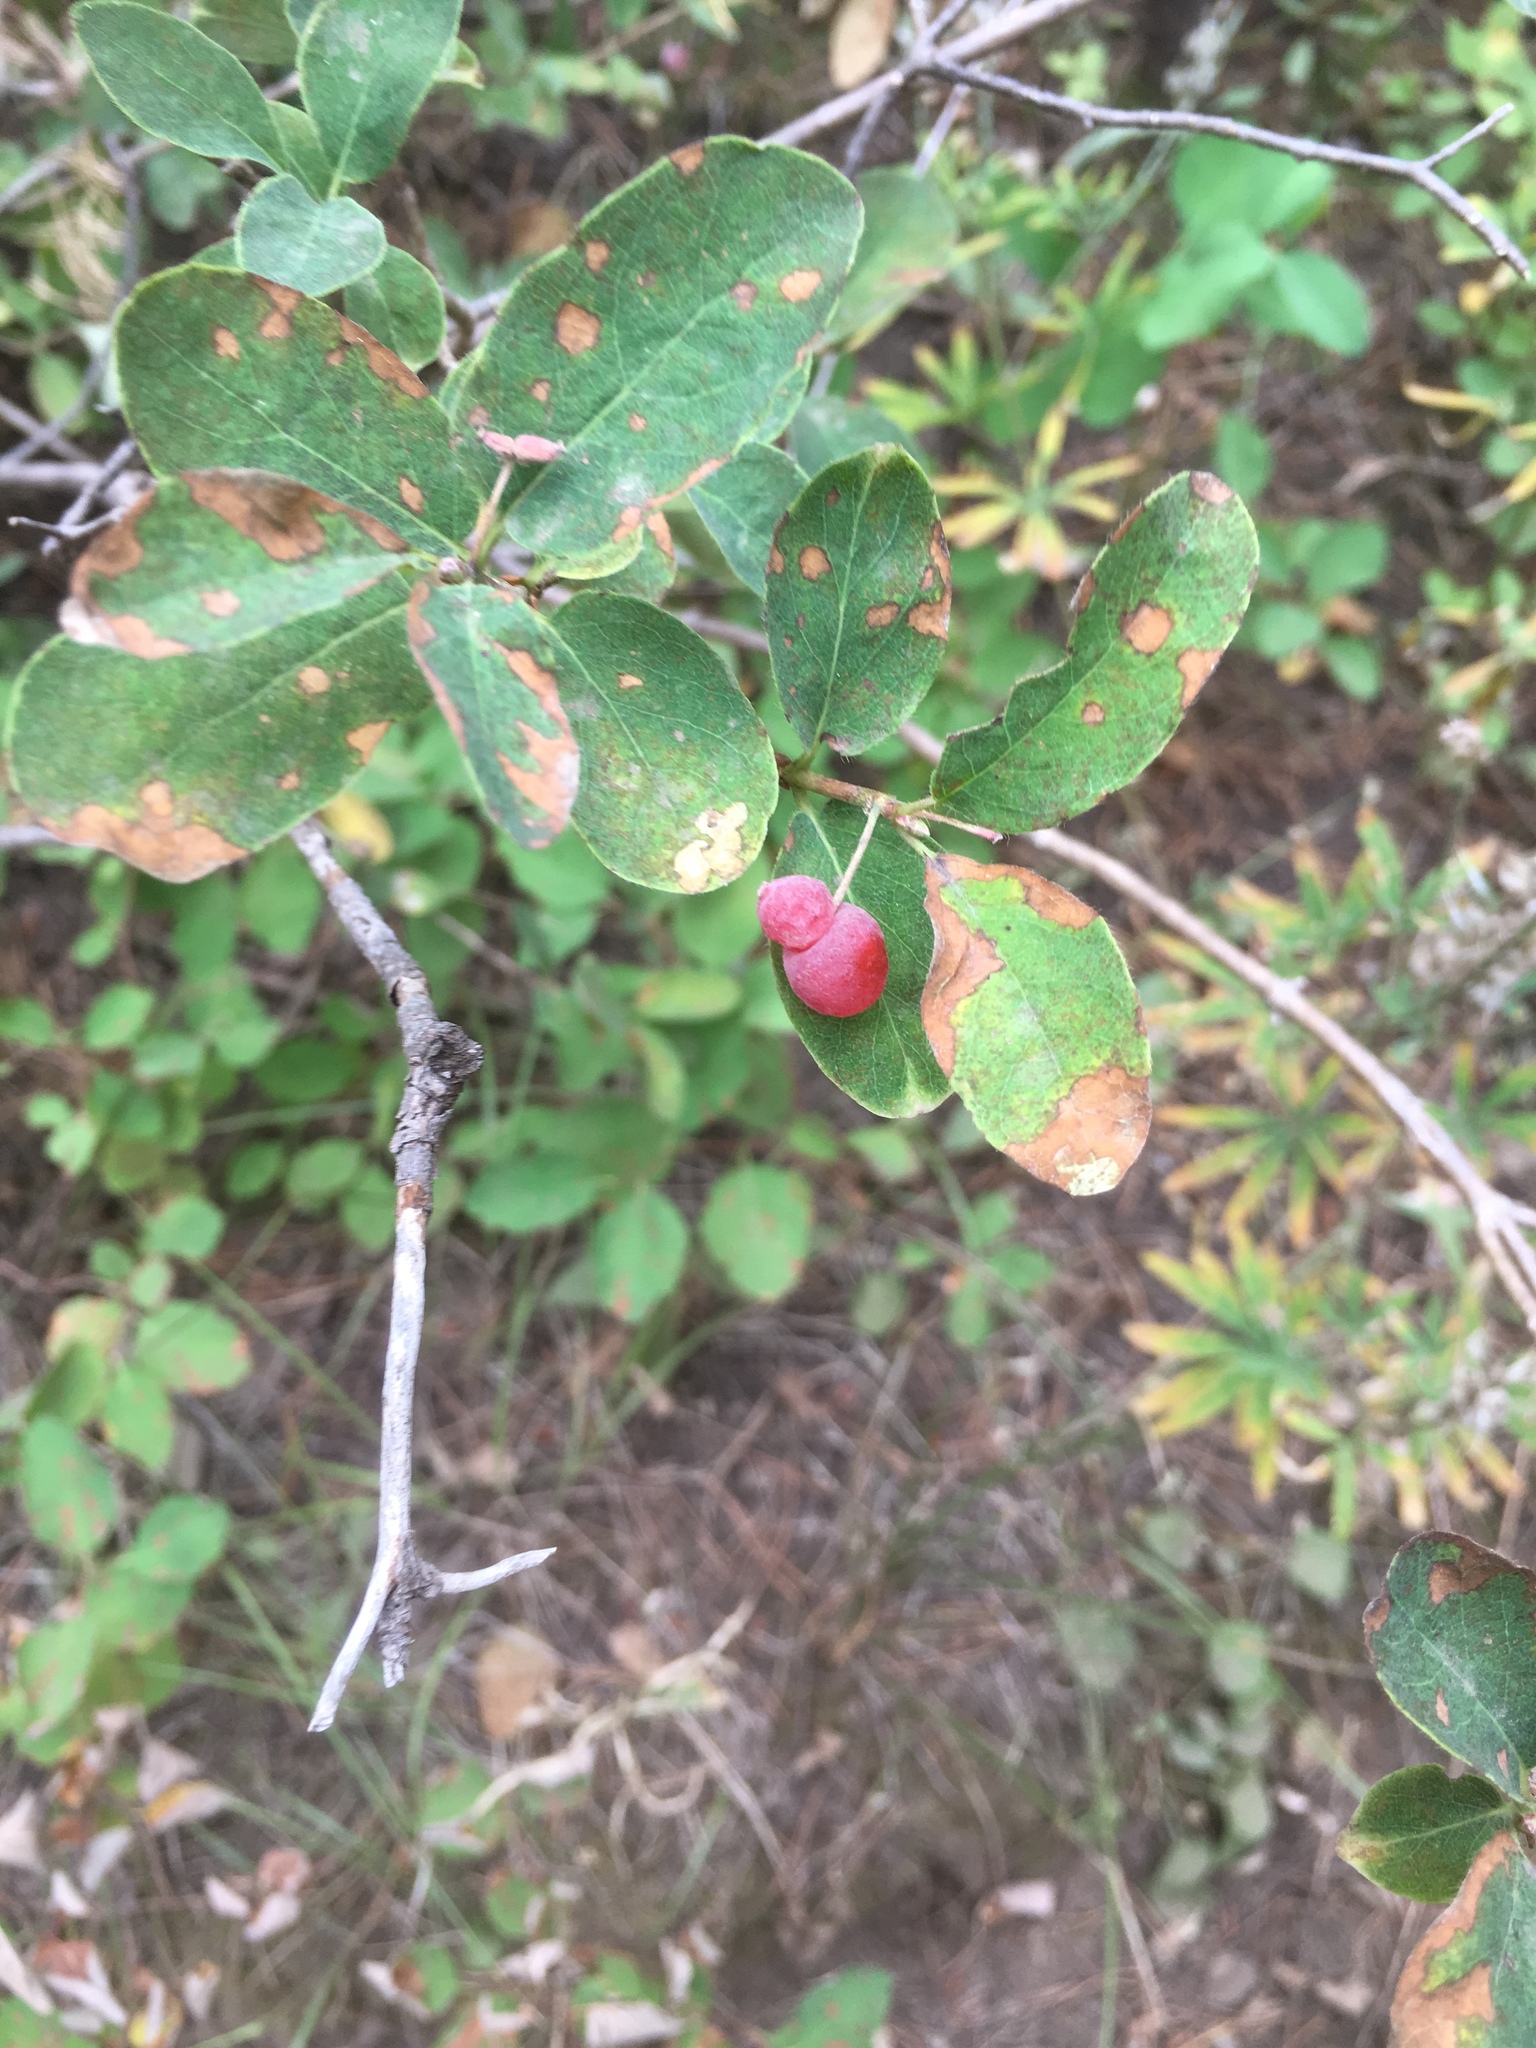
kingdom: Plantae
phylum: Tracheophyta
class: Magnoliopsida
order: Dipsacales
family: Caprifoliaceae
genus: Lonicera
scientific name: Lonicera utahensis
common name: Utah honeysuckle
